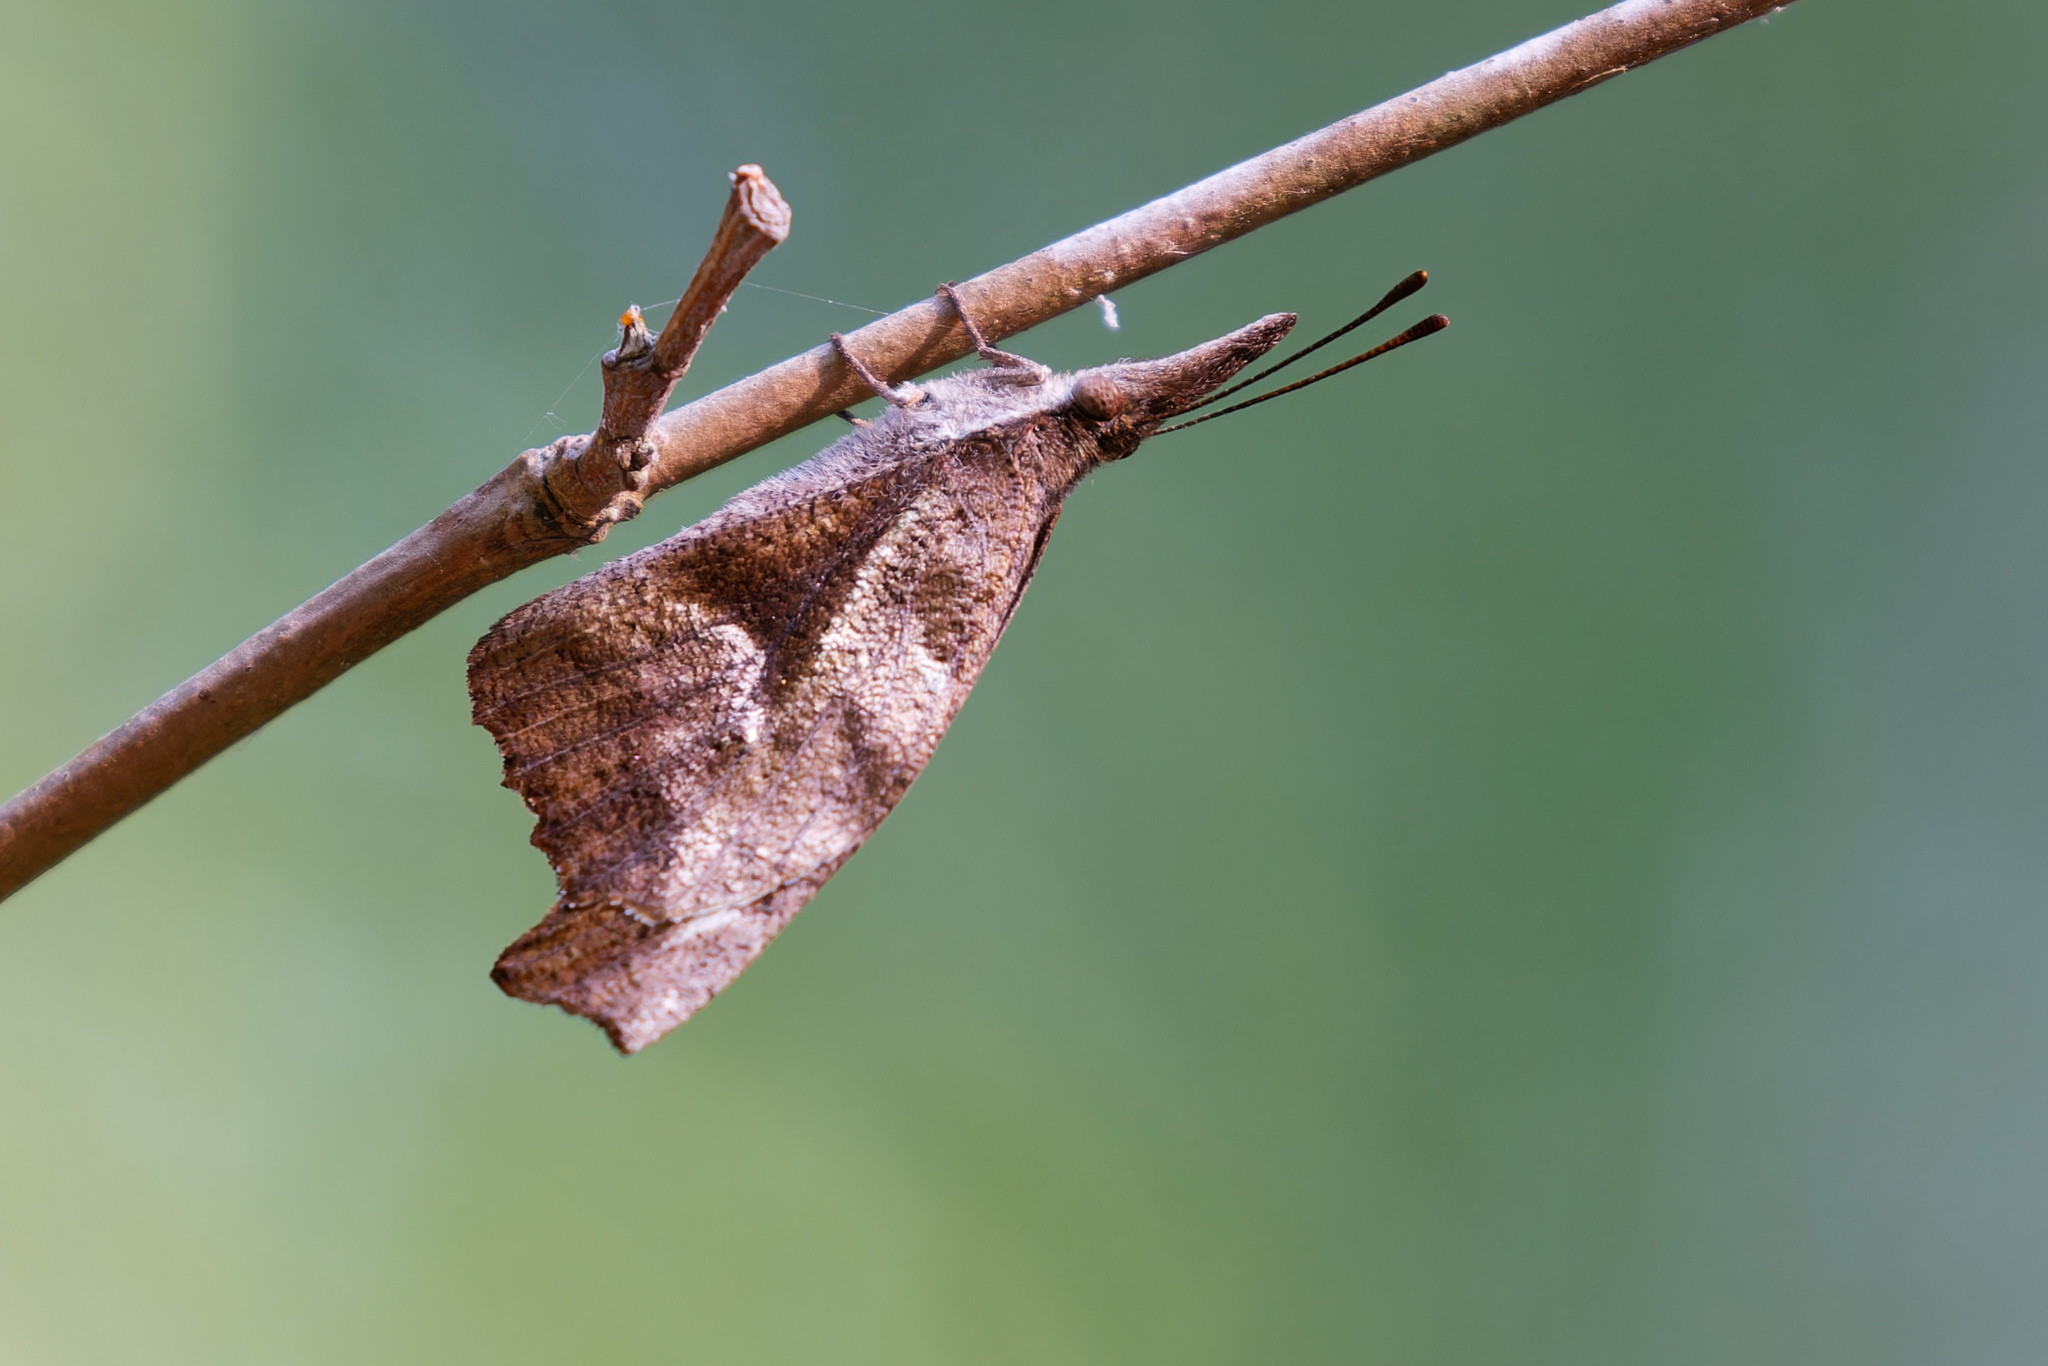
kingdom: Animalia
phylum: Arthropoda
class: Insecta
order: Lepidoptera
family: Nymphalidae
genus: Libytheana
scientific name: Libytheana carinenta
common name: American snout
